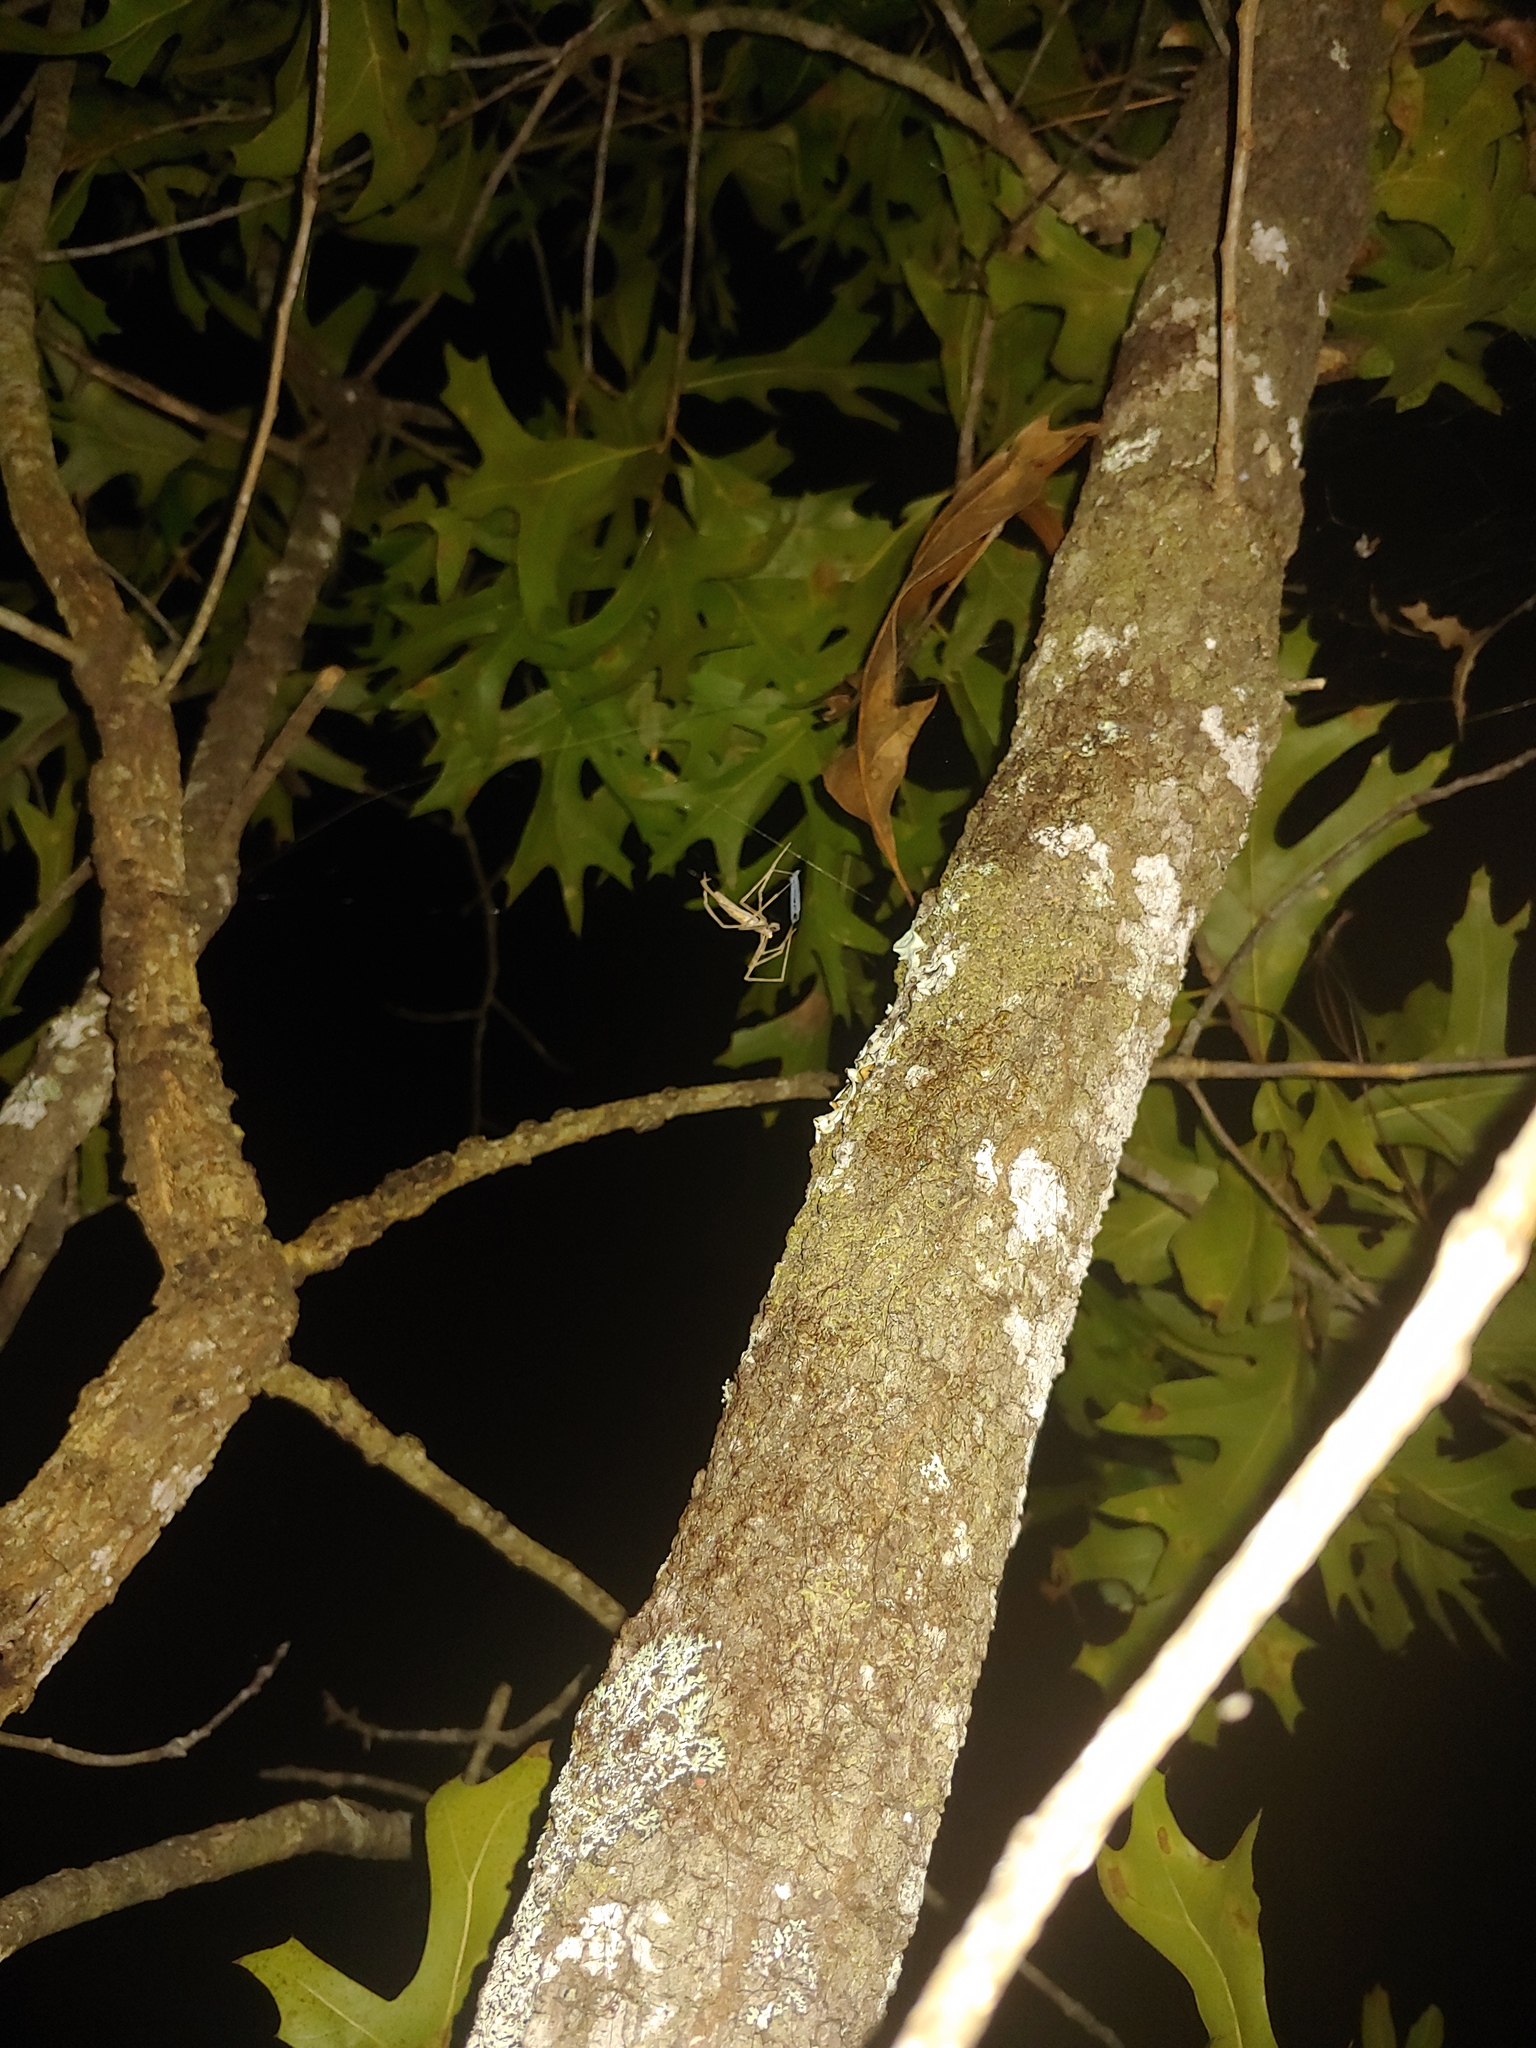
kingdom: Animalia
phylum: Arthropoda
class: Arachnida
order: Araneae
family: Deinopidae
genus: Deinopis
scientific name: Deinopis spinosa
